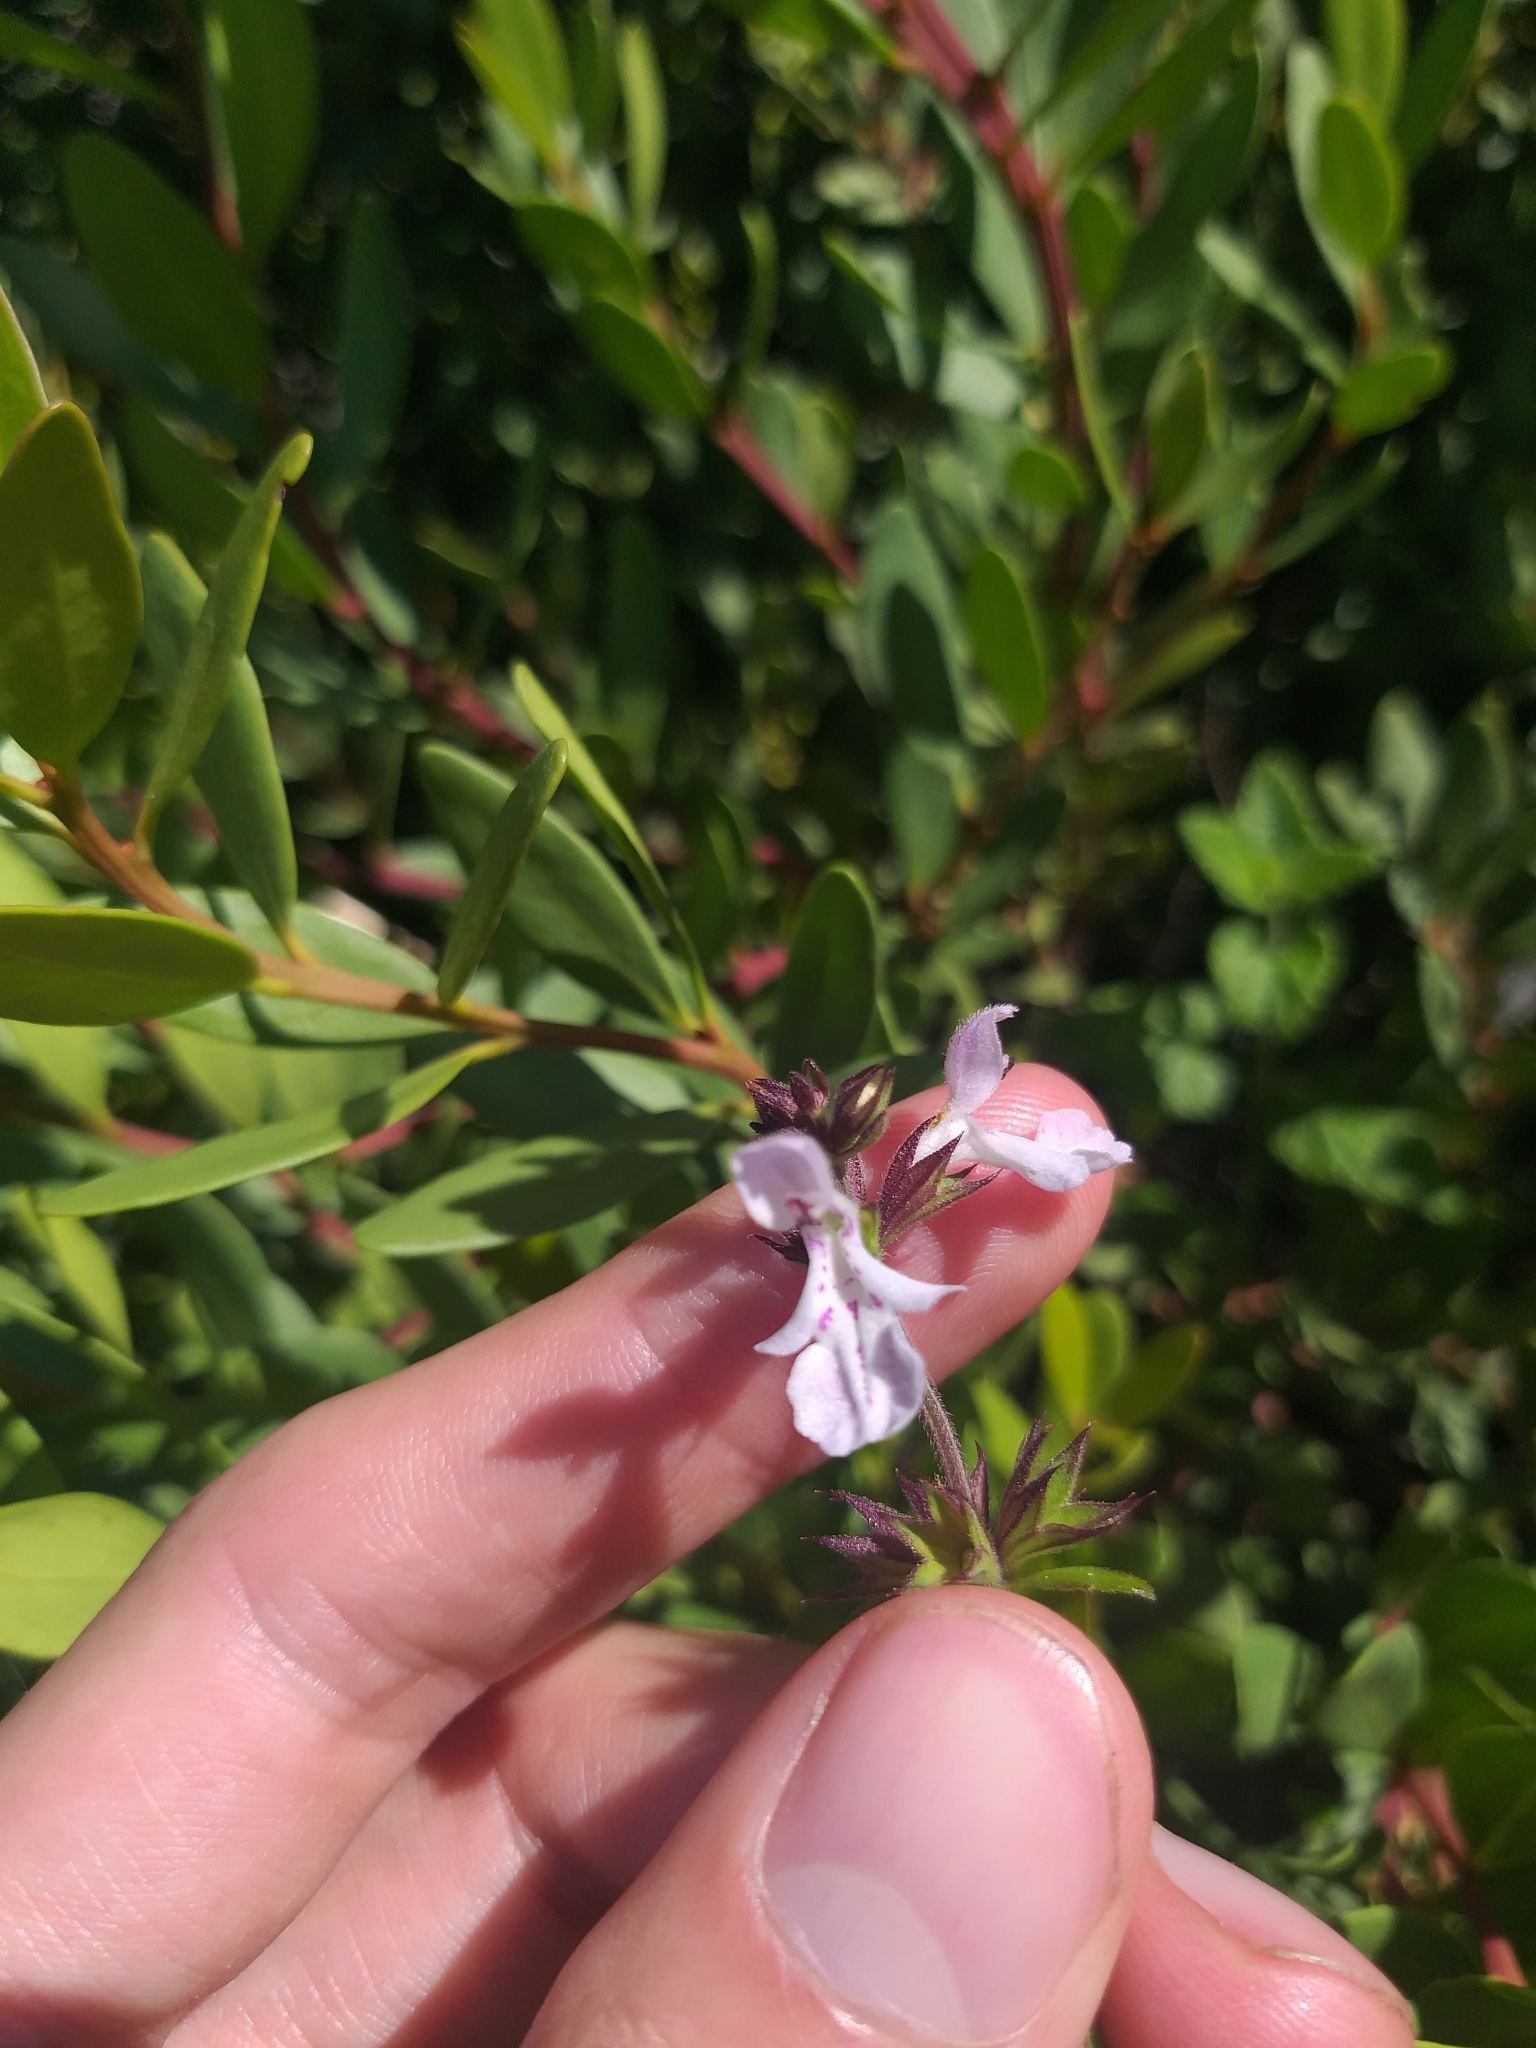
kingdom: Plantae
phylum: Tracheophyta
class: Magnoliopsida
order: Lamiales
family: Lamiaceae
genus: Stachys
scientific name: Stachys aethiopica
